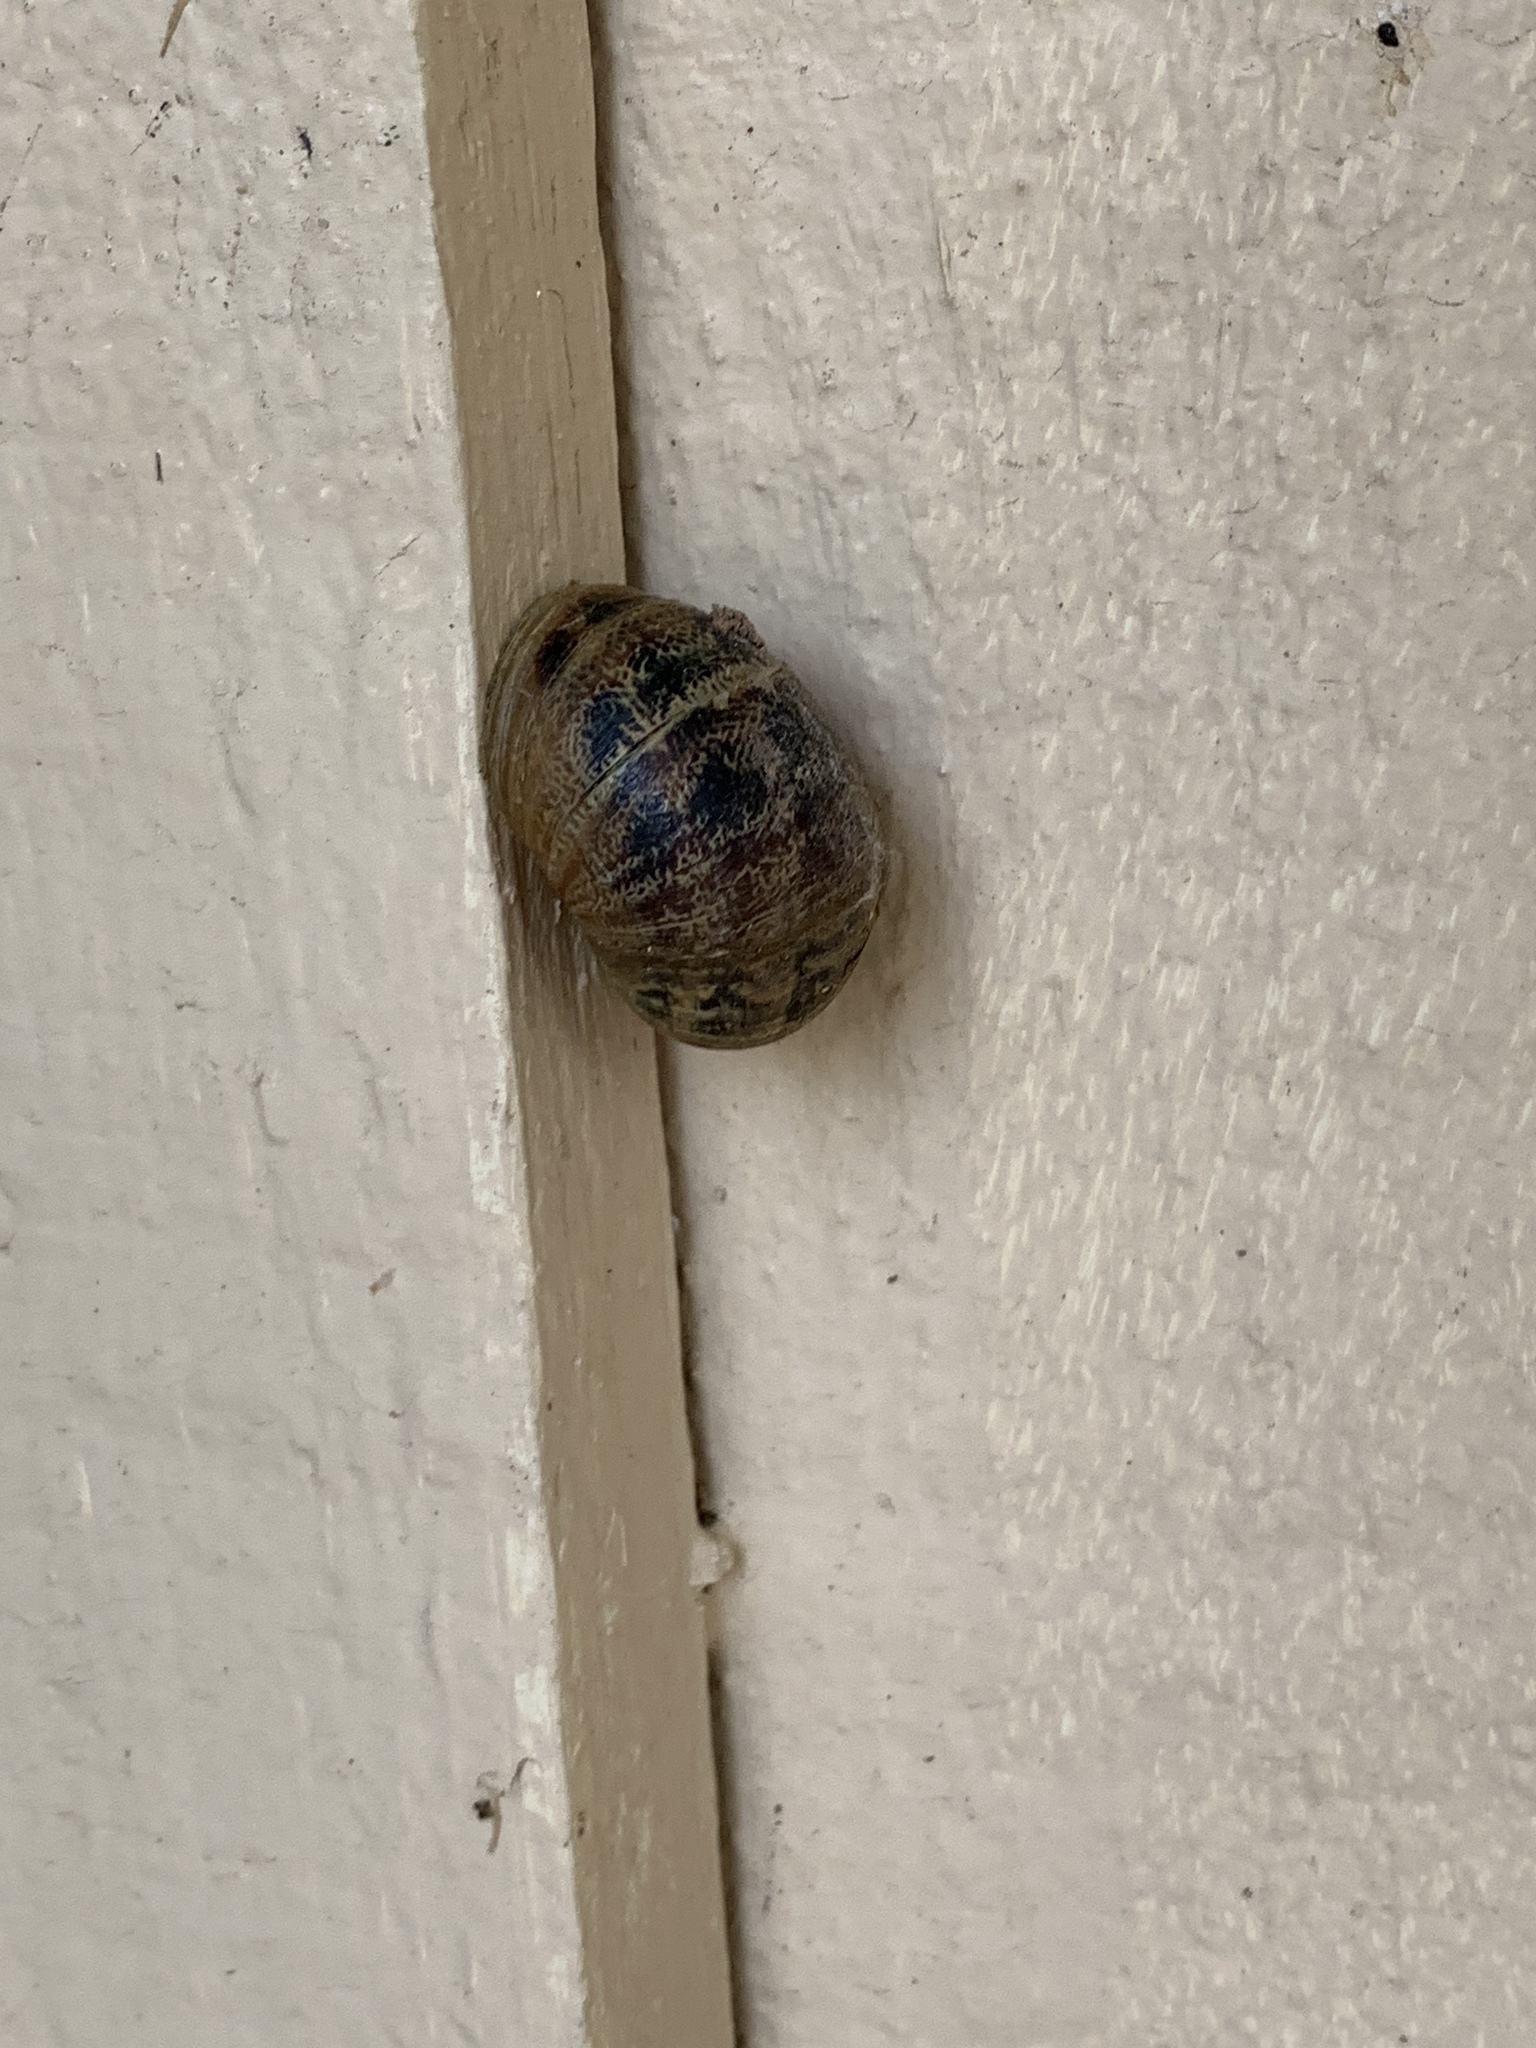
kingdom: Animalia
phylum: Mollusca
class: Gastropoda
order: Stylommatophora
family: Helicidae
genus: Cornu
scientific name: Cornu aspersum
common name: Brown garden snail
